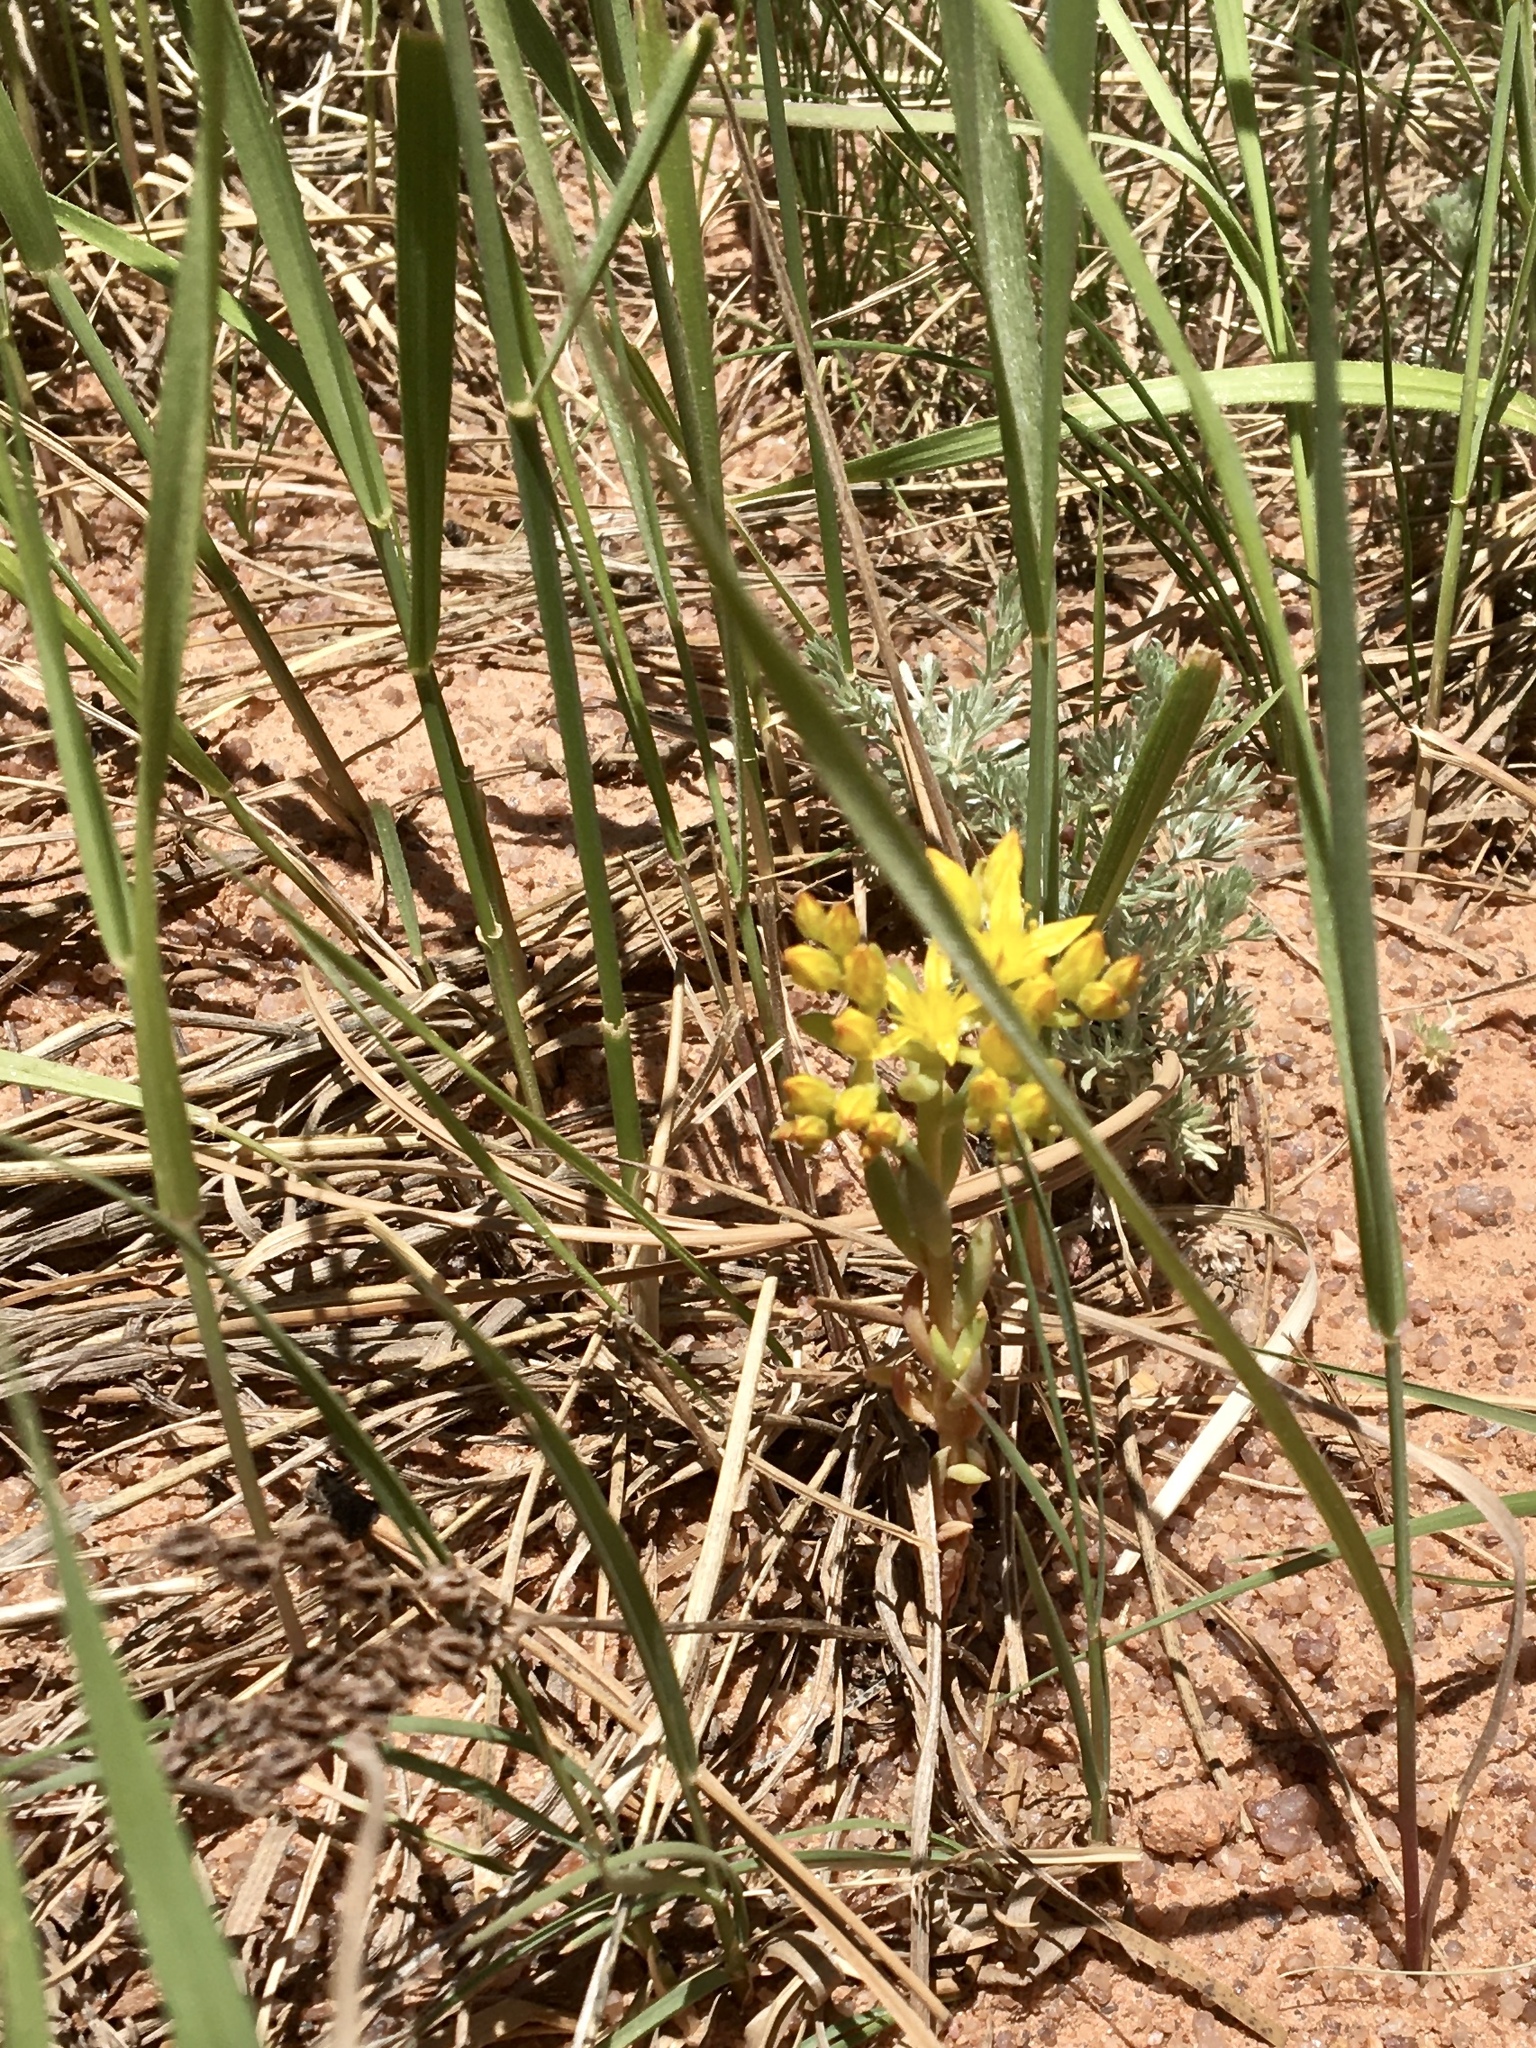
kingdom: Plantae
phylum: Tracheophyta
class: Magnoliopsida
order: Saxifragales
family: Crassulaceae
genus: Sedum
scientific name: Sedum lanceolatum
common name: Common stonecrop
